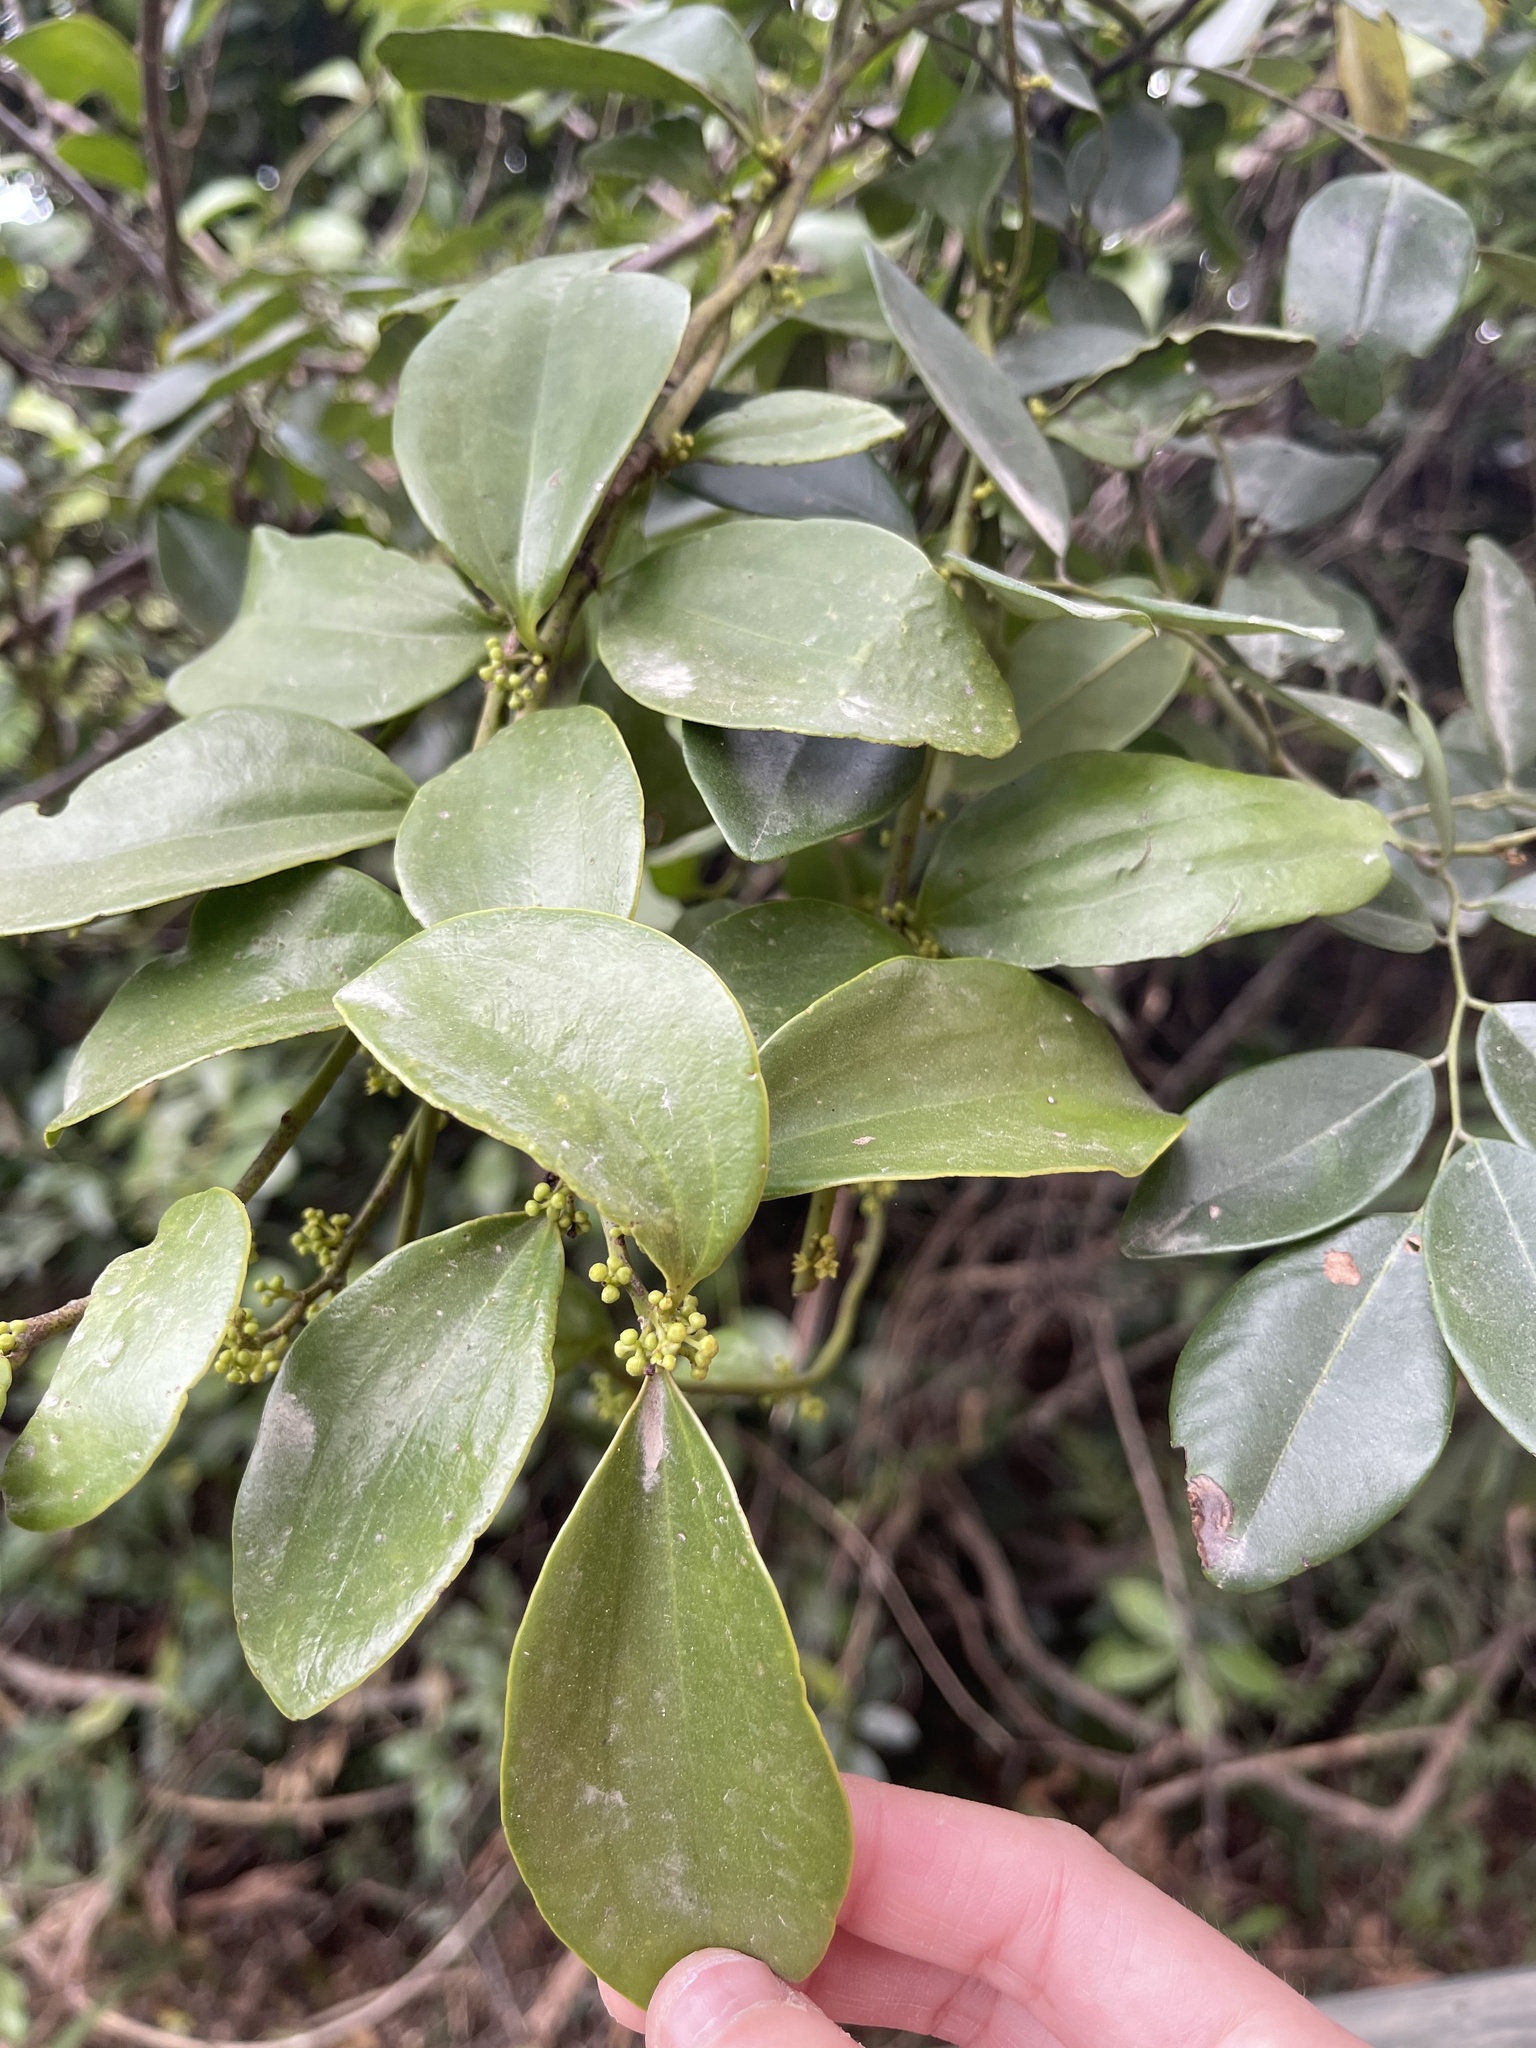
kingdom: Plantae
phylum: Tracheophyta
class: Magnoliopsida
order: Santalales
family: Amphorogynaceae
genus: Dendrotrophe
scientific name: Dendrotrophe varians
